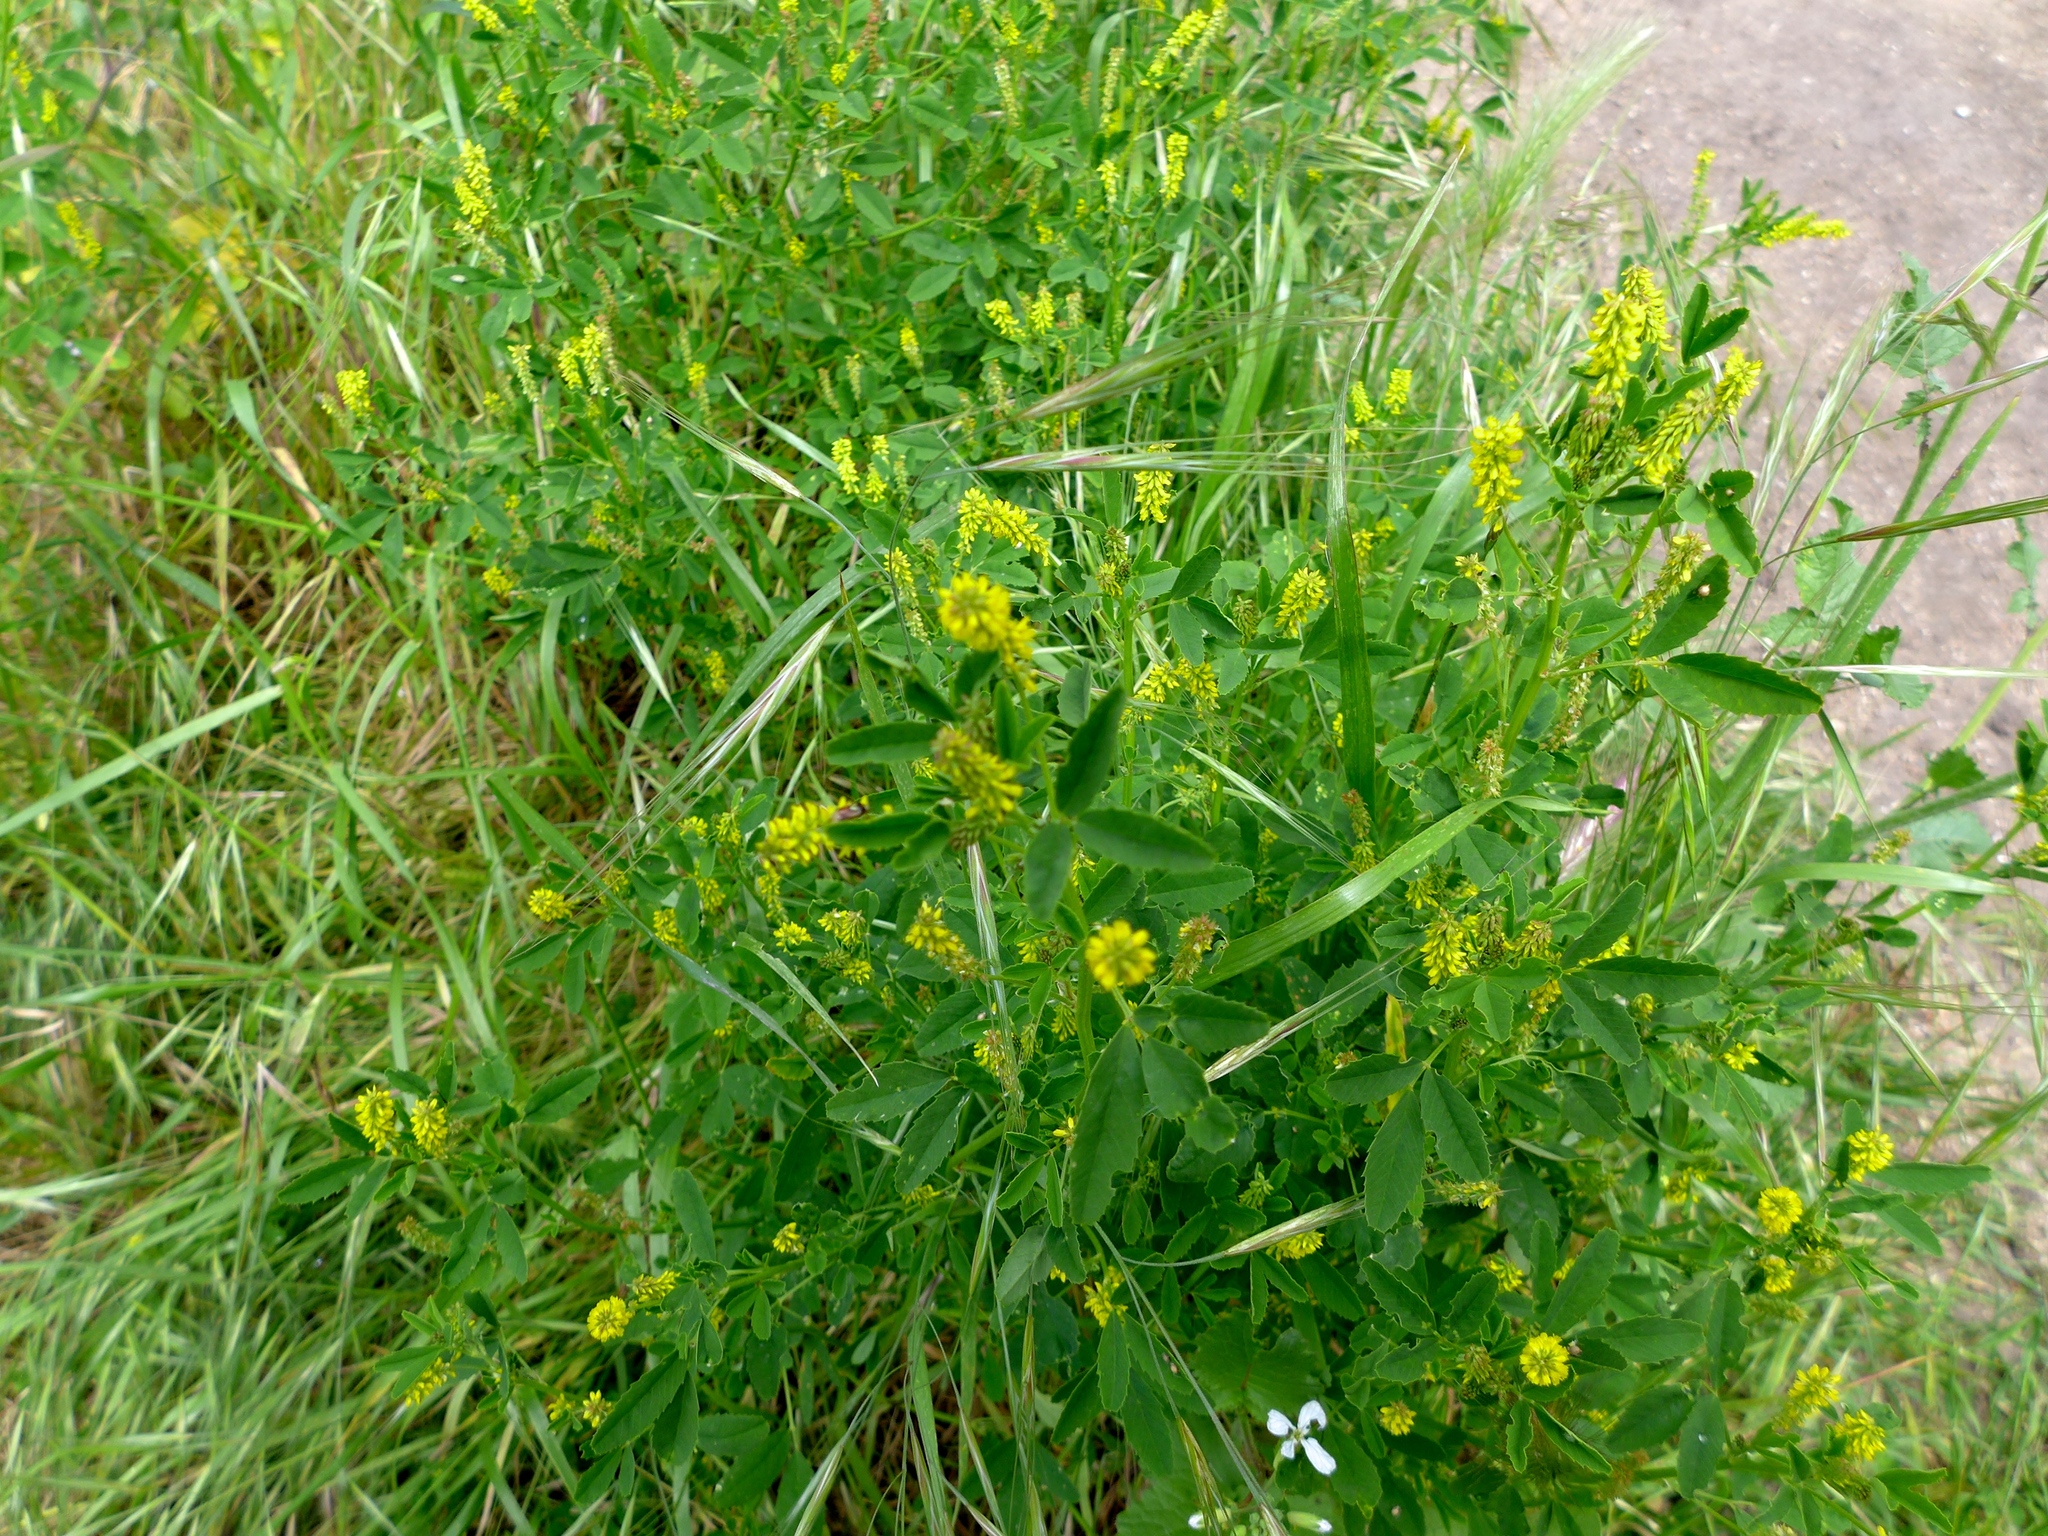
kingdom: Plantae
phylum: Tracheophyta
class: Magnoliopsida
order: Fabales
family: Fabaceae
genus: Melilotus
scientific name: Melilotus indicus
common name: Small melilot
